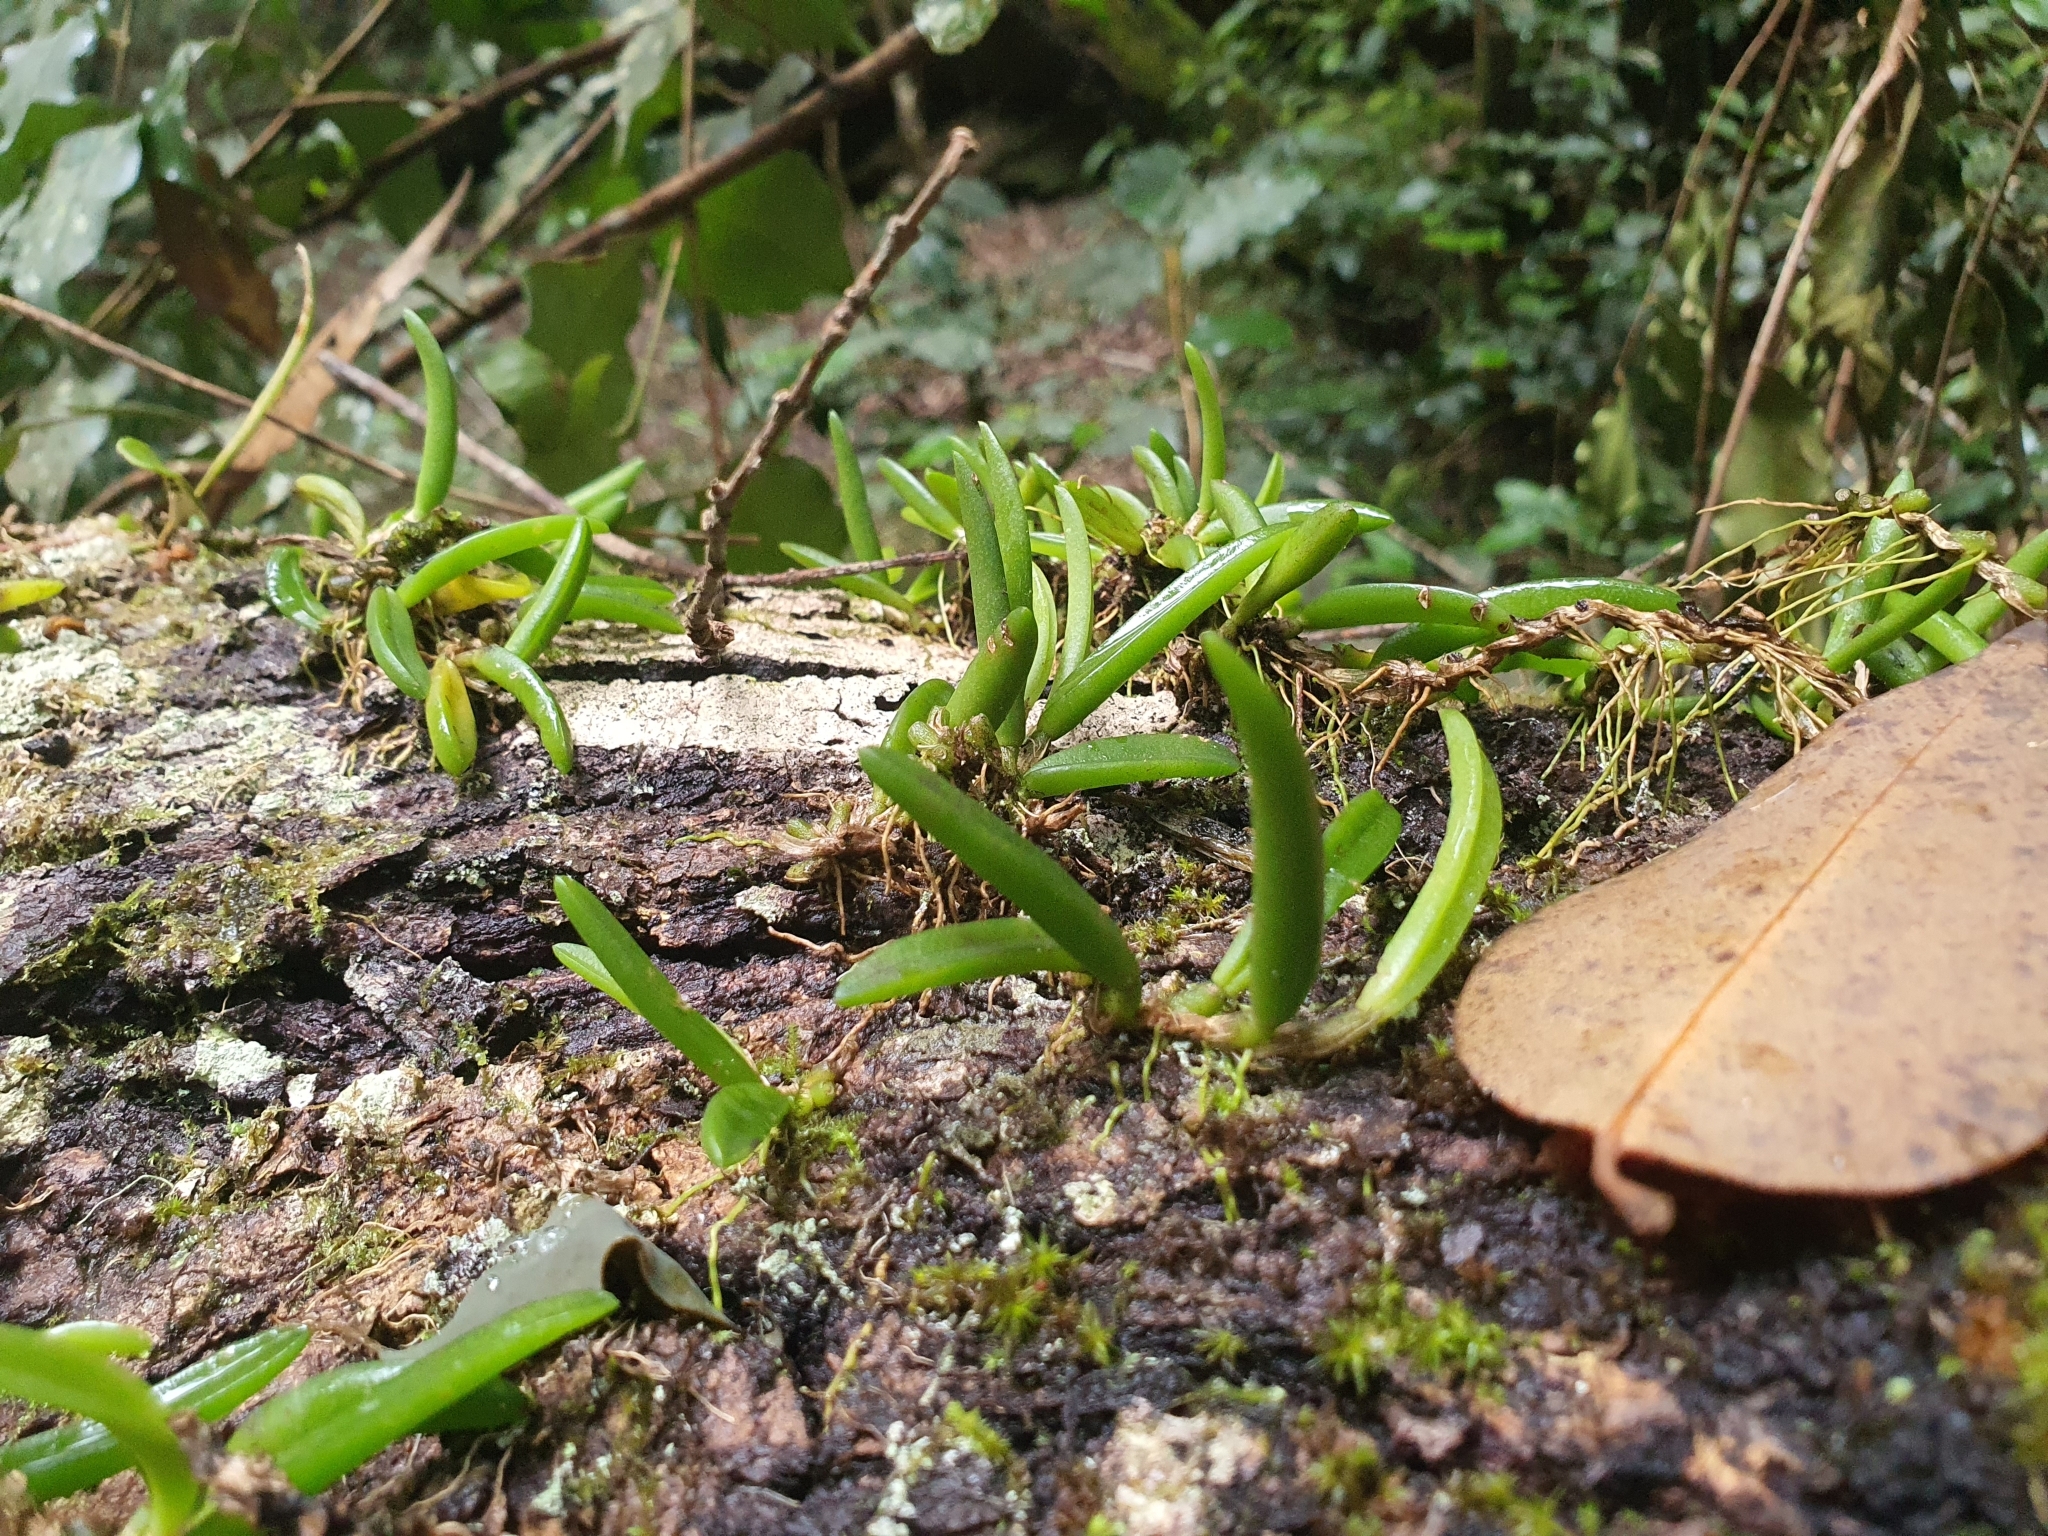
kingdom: Plantae
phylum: Tracheophyta
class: Liliopsida
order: Asparagales
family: Orchidaceae
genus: Bulbophyllum
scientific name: Bulbophyllum shepherdii
